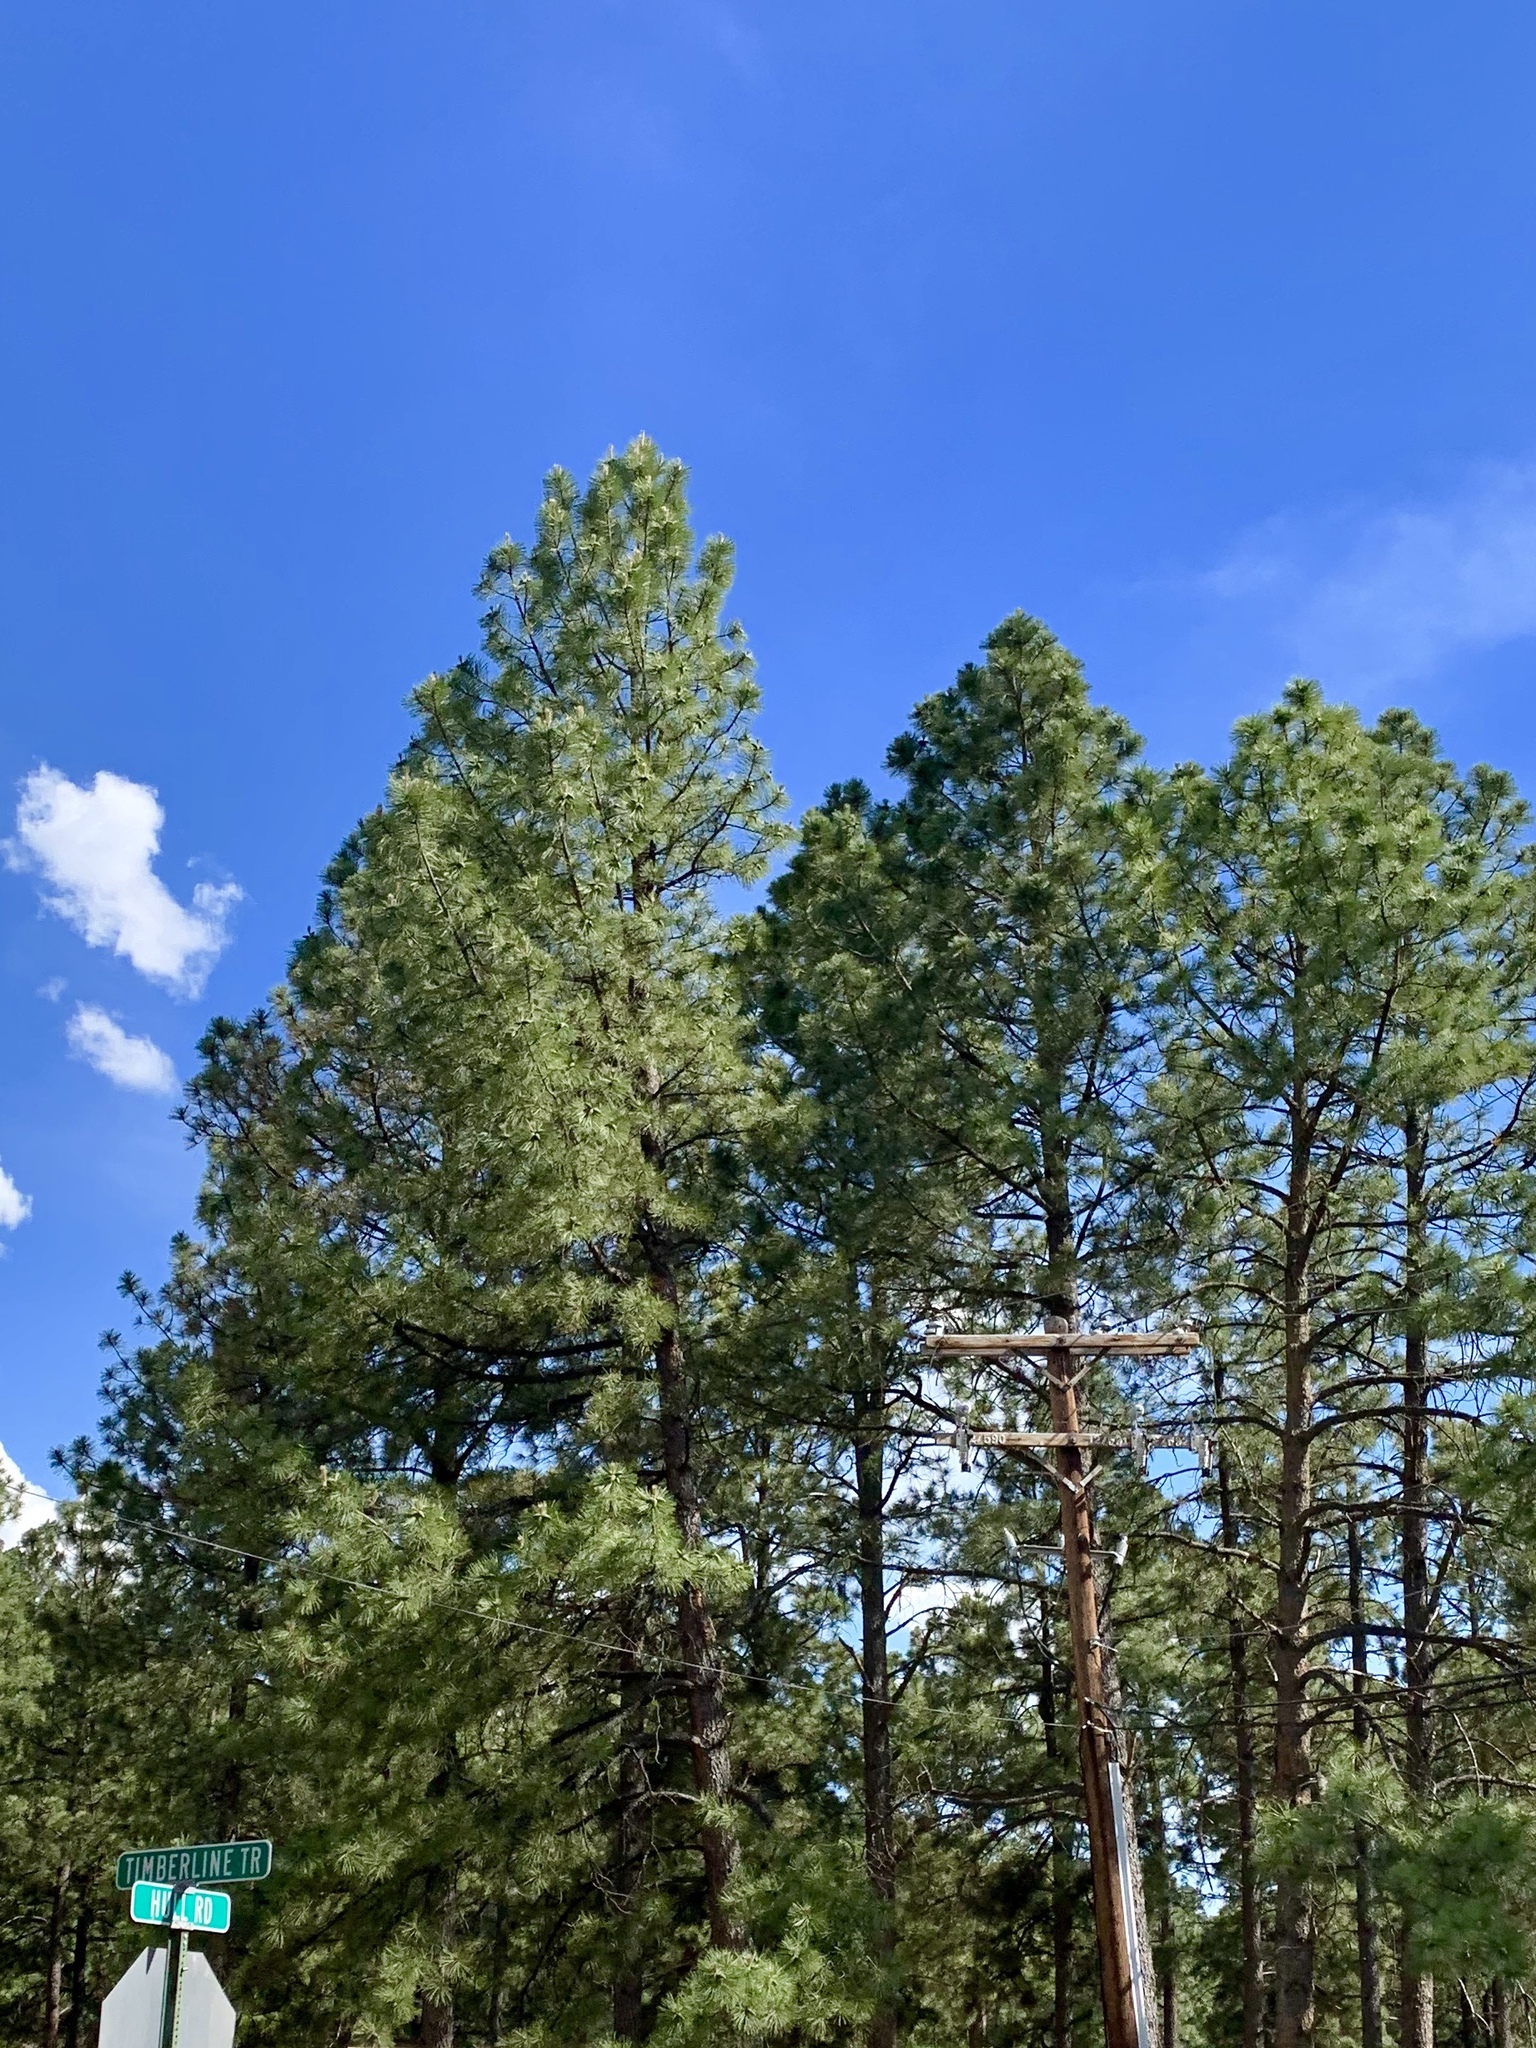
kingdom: Plantae
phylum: Tracheophyta
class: Pinopsida
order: Pinales
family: Pinaceae
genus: Pinus
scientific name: Pinus ponderosa
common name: Western yellow-pine
